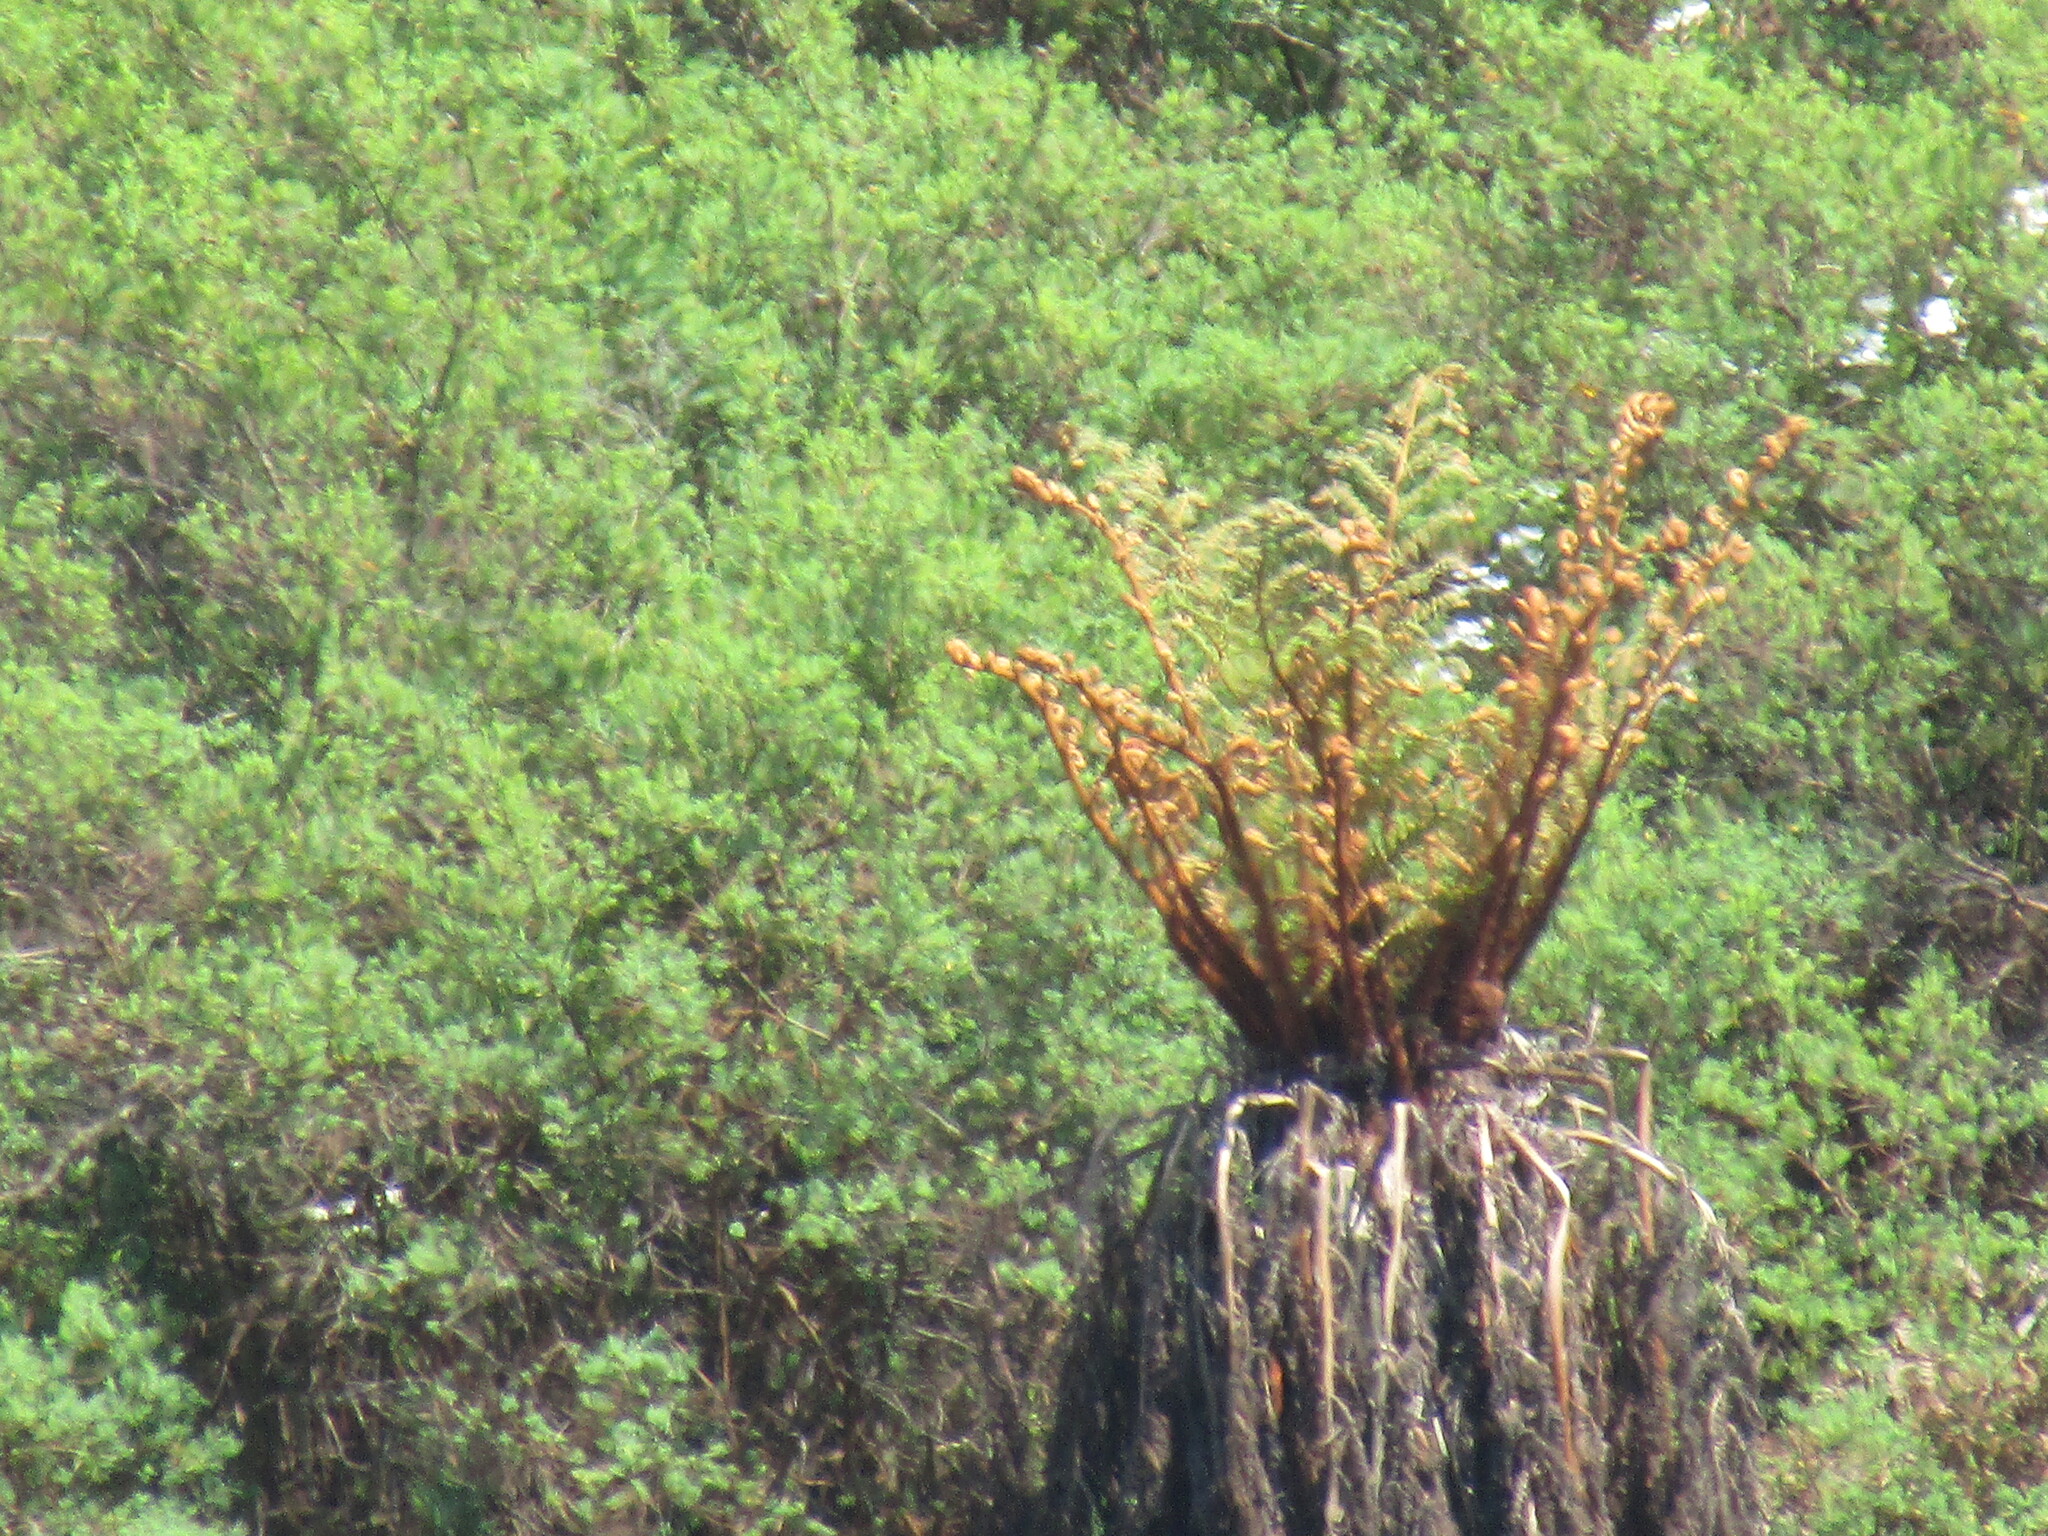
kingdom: Plantae
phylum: Tracheophyta
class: Polypodiopsida
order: Cyatheales
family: Cyatheaceae
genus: Alsophila
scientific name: Alsophila dregei
